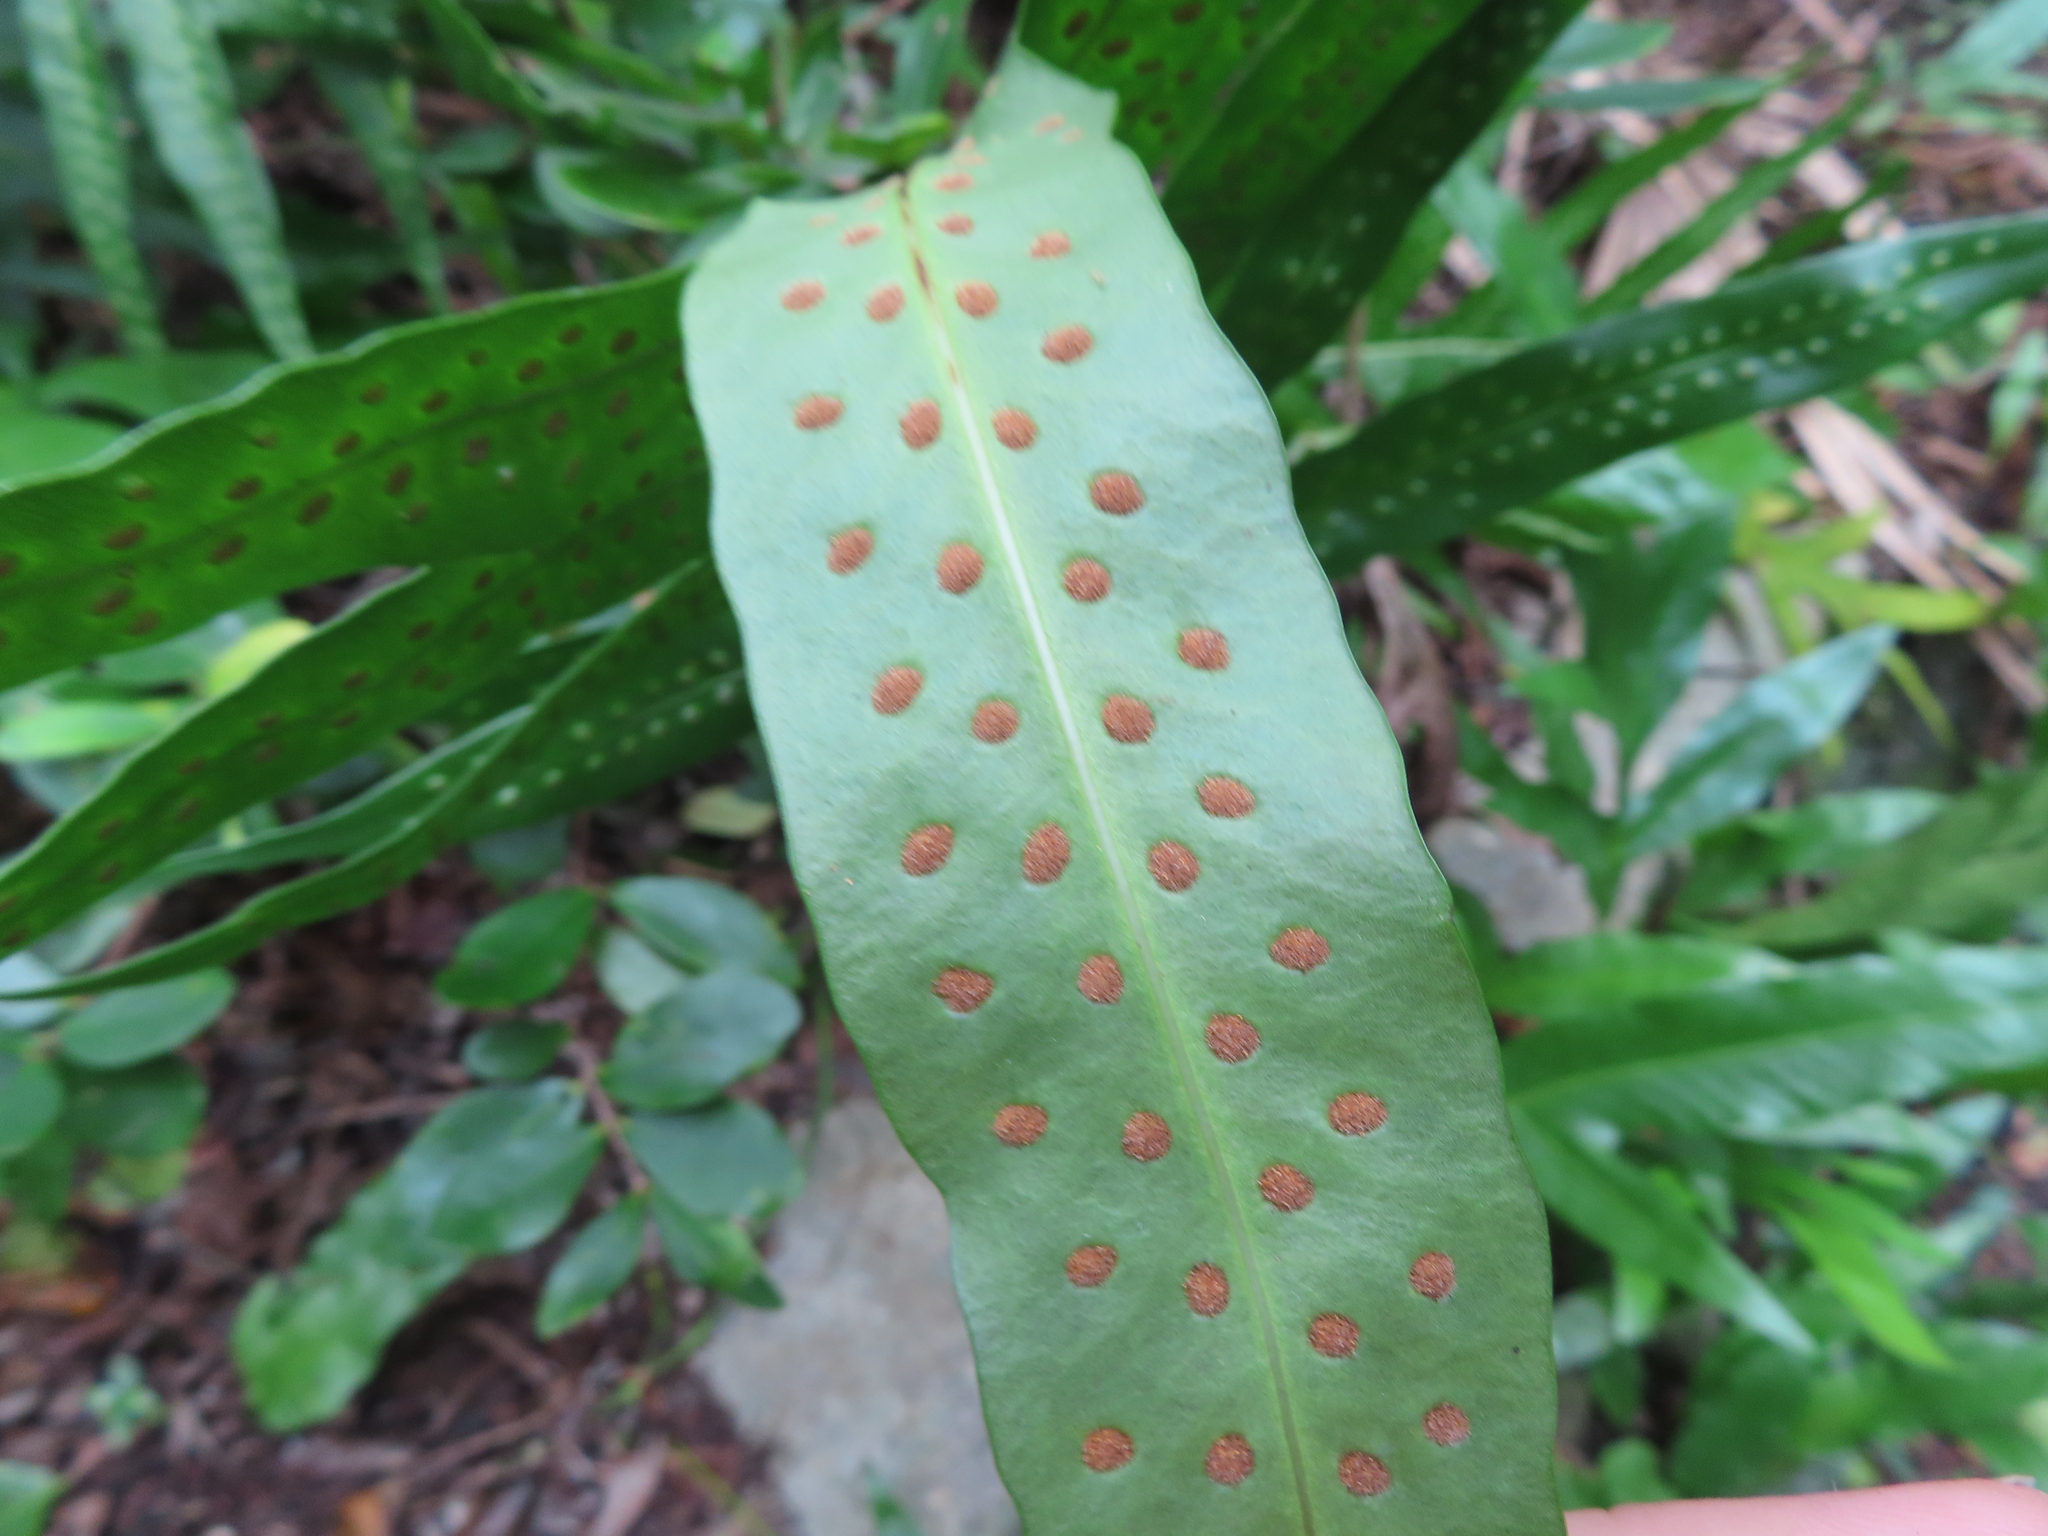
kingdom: Plantae
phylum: Tracheophyta
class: Polypodiopsida
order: Polypodiales
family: Polypodiaceae
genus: Microsorum
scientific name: Microsorum grossum
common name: Musk fern
